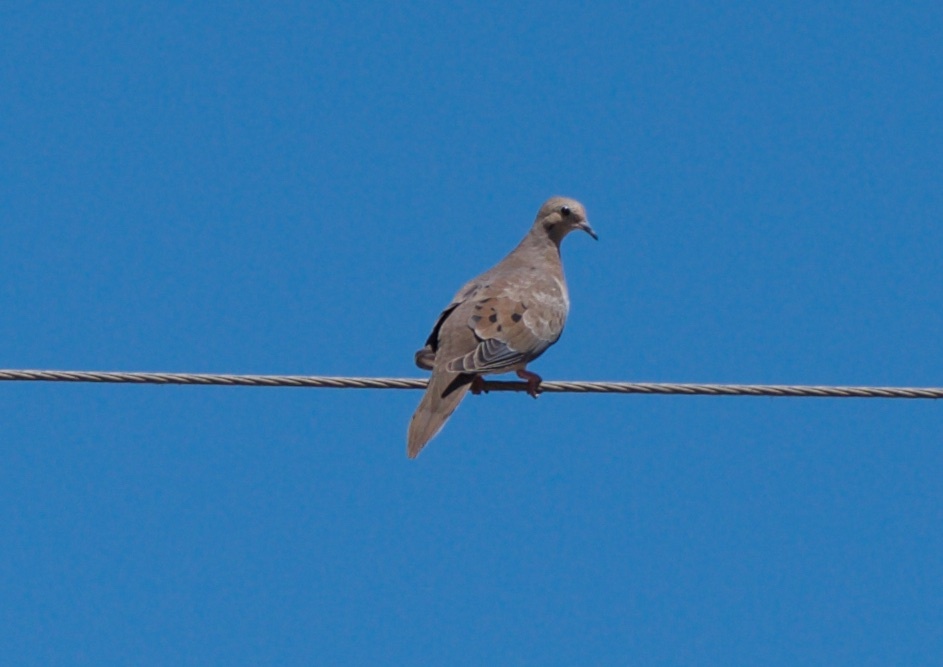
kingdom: Animalia
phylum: Chordata
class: Aves
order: Columbiformes
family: Columbidae
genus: Zenaida
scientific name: Zenaida macroura
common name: Mourning dove
